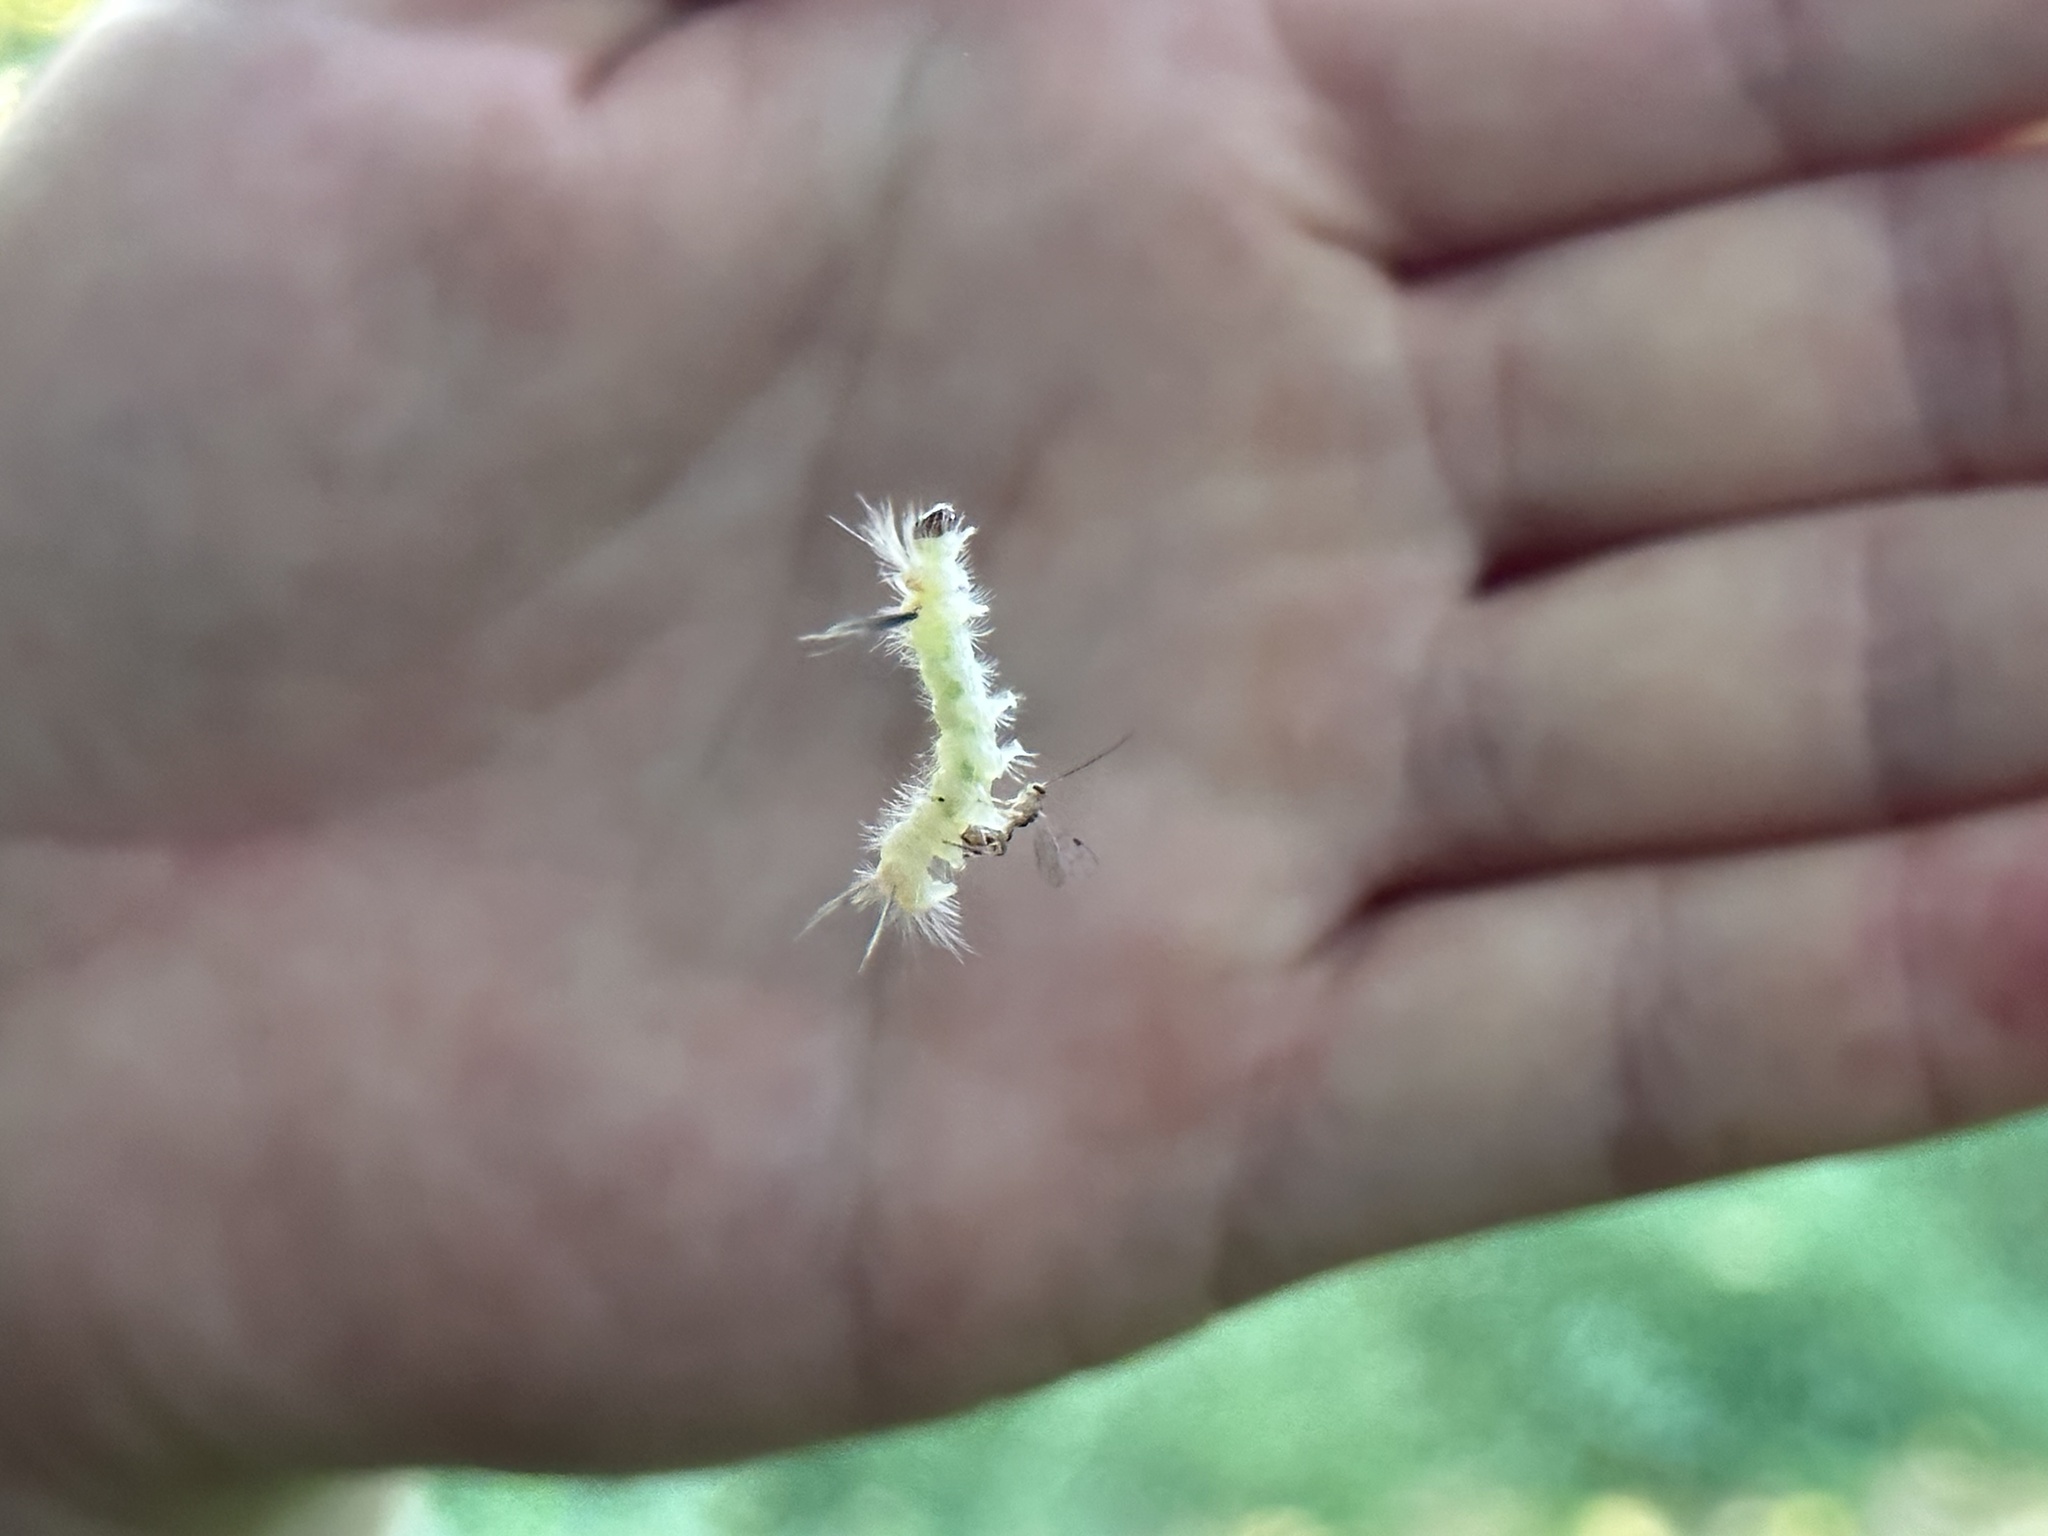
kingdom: Animalia
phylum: Arthropoda
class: Insecta
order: Lepidoptera
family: Erebidae
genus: Halysidota
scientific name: Halysidota tessellaris
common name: Banded tussock moth
